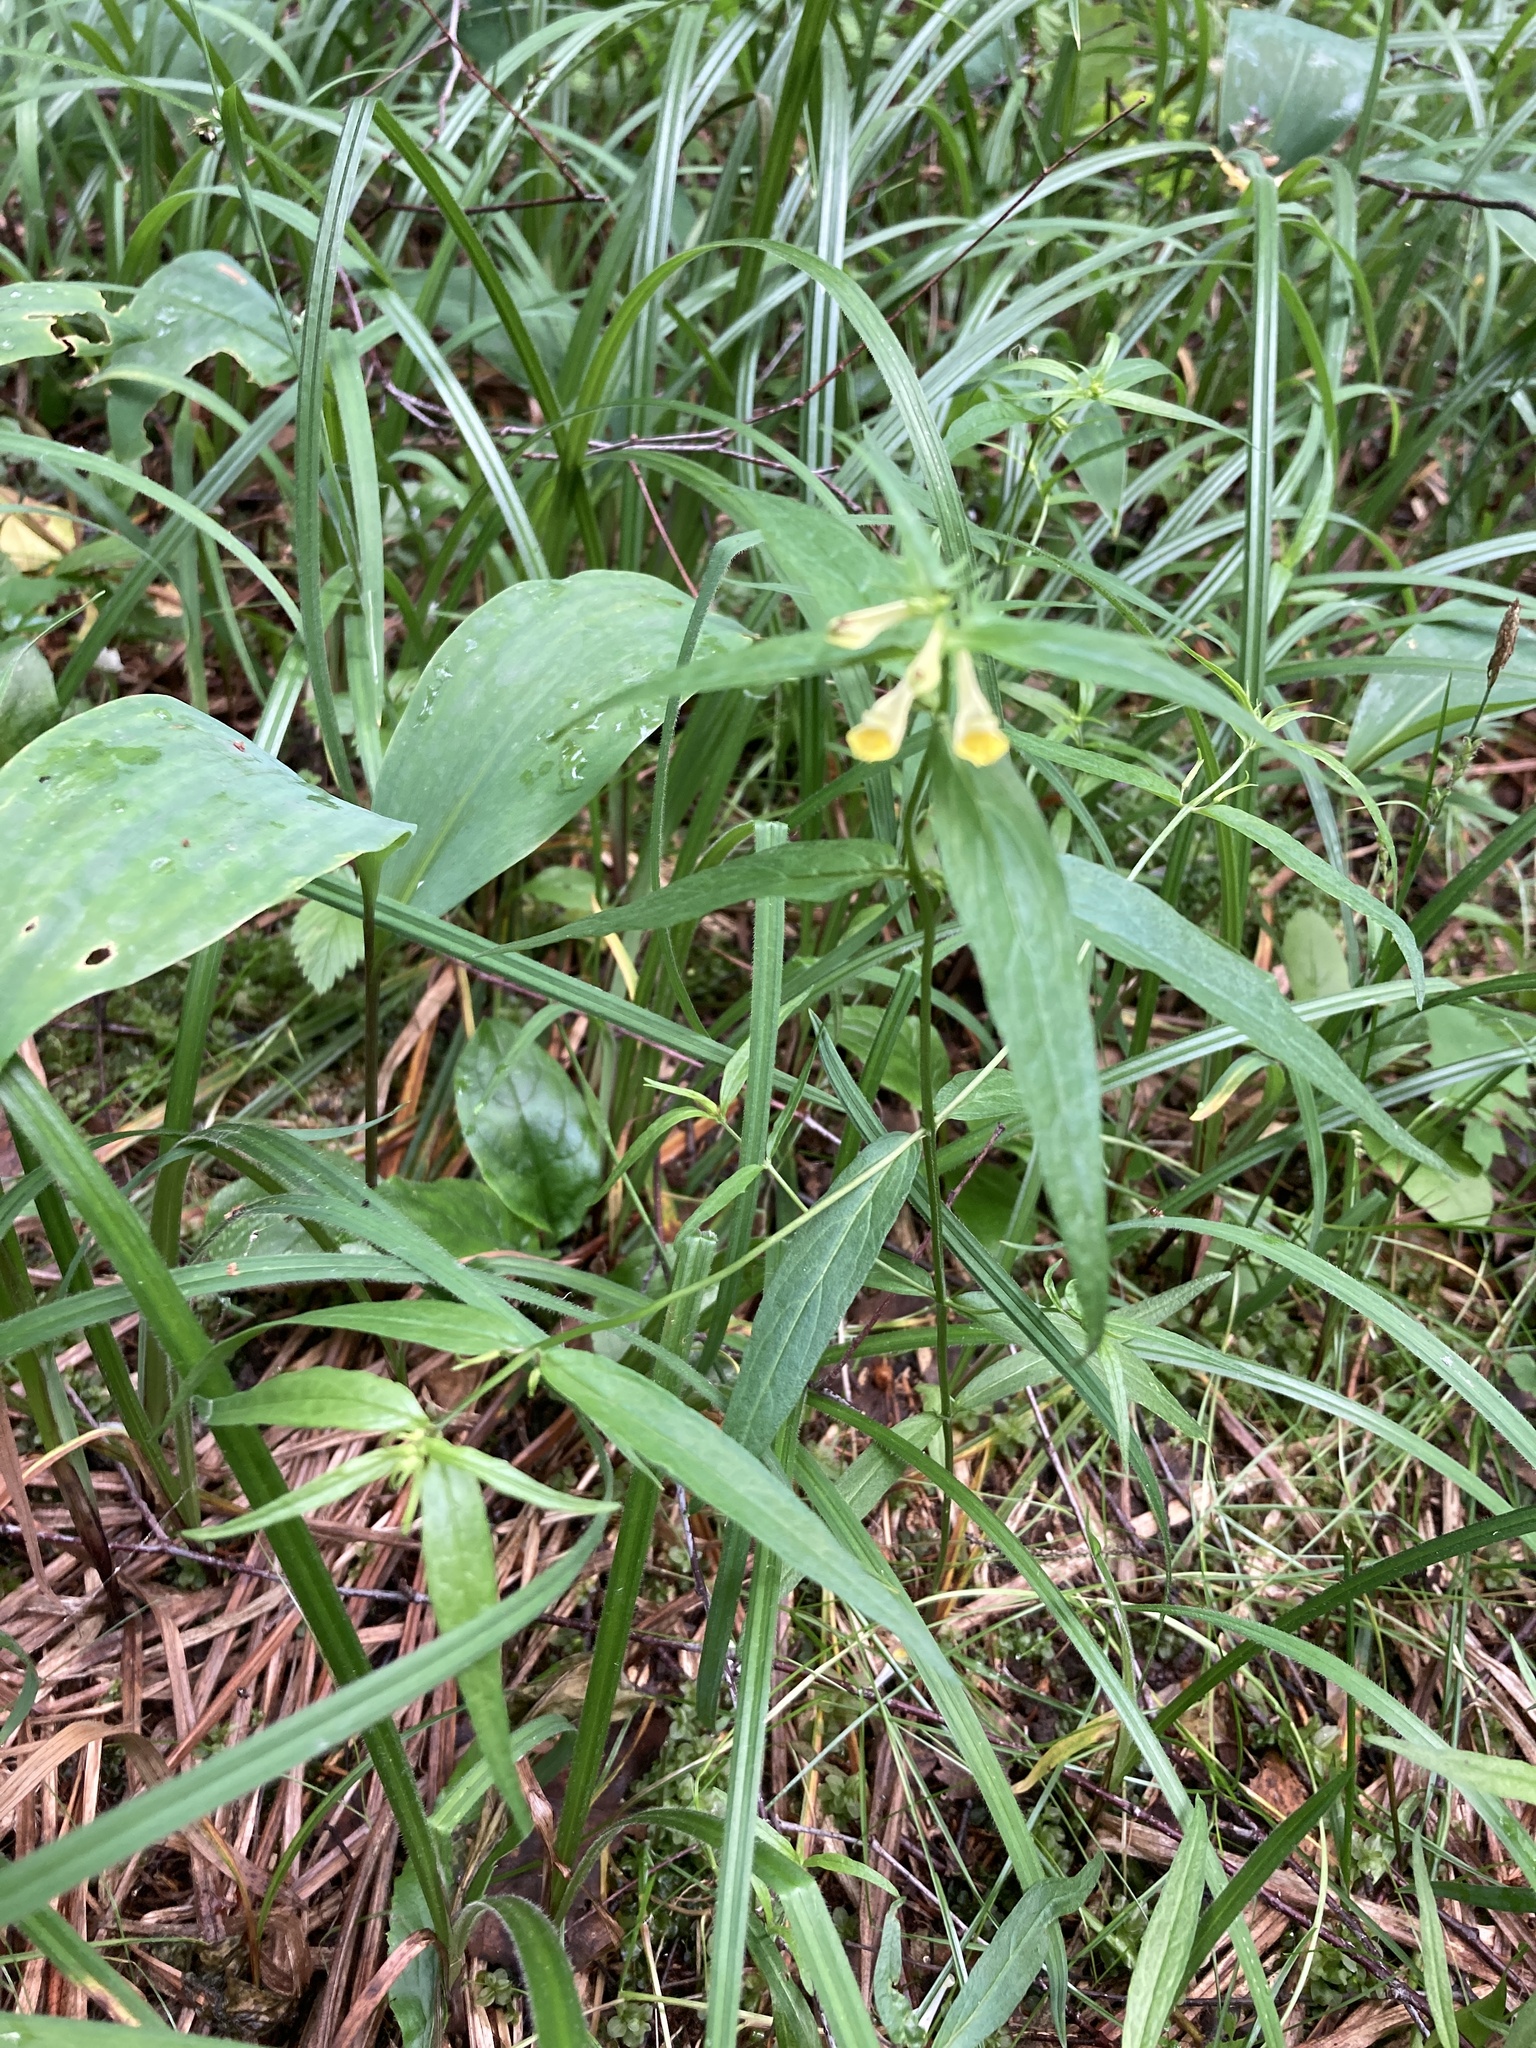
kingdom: Plantae
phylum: Tracheophyta
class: Magnoliopsida
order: Lamiales
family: Orobanchaceae
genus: Melampyrum
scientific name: Melampyrum pratense
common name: Common cow-wheat
